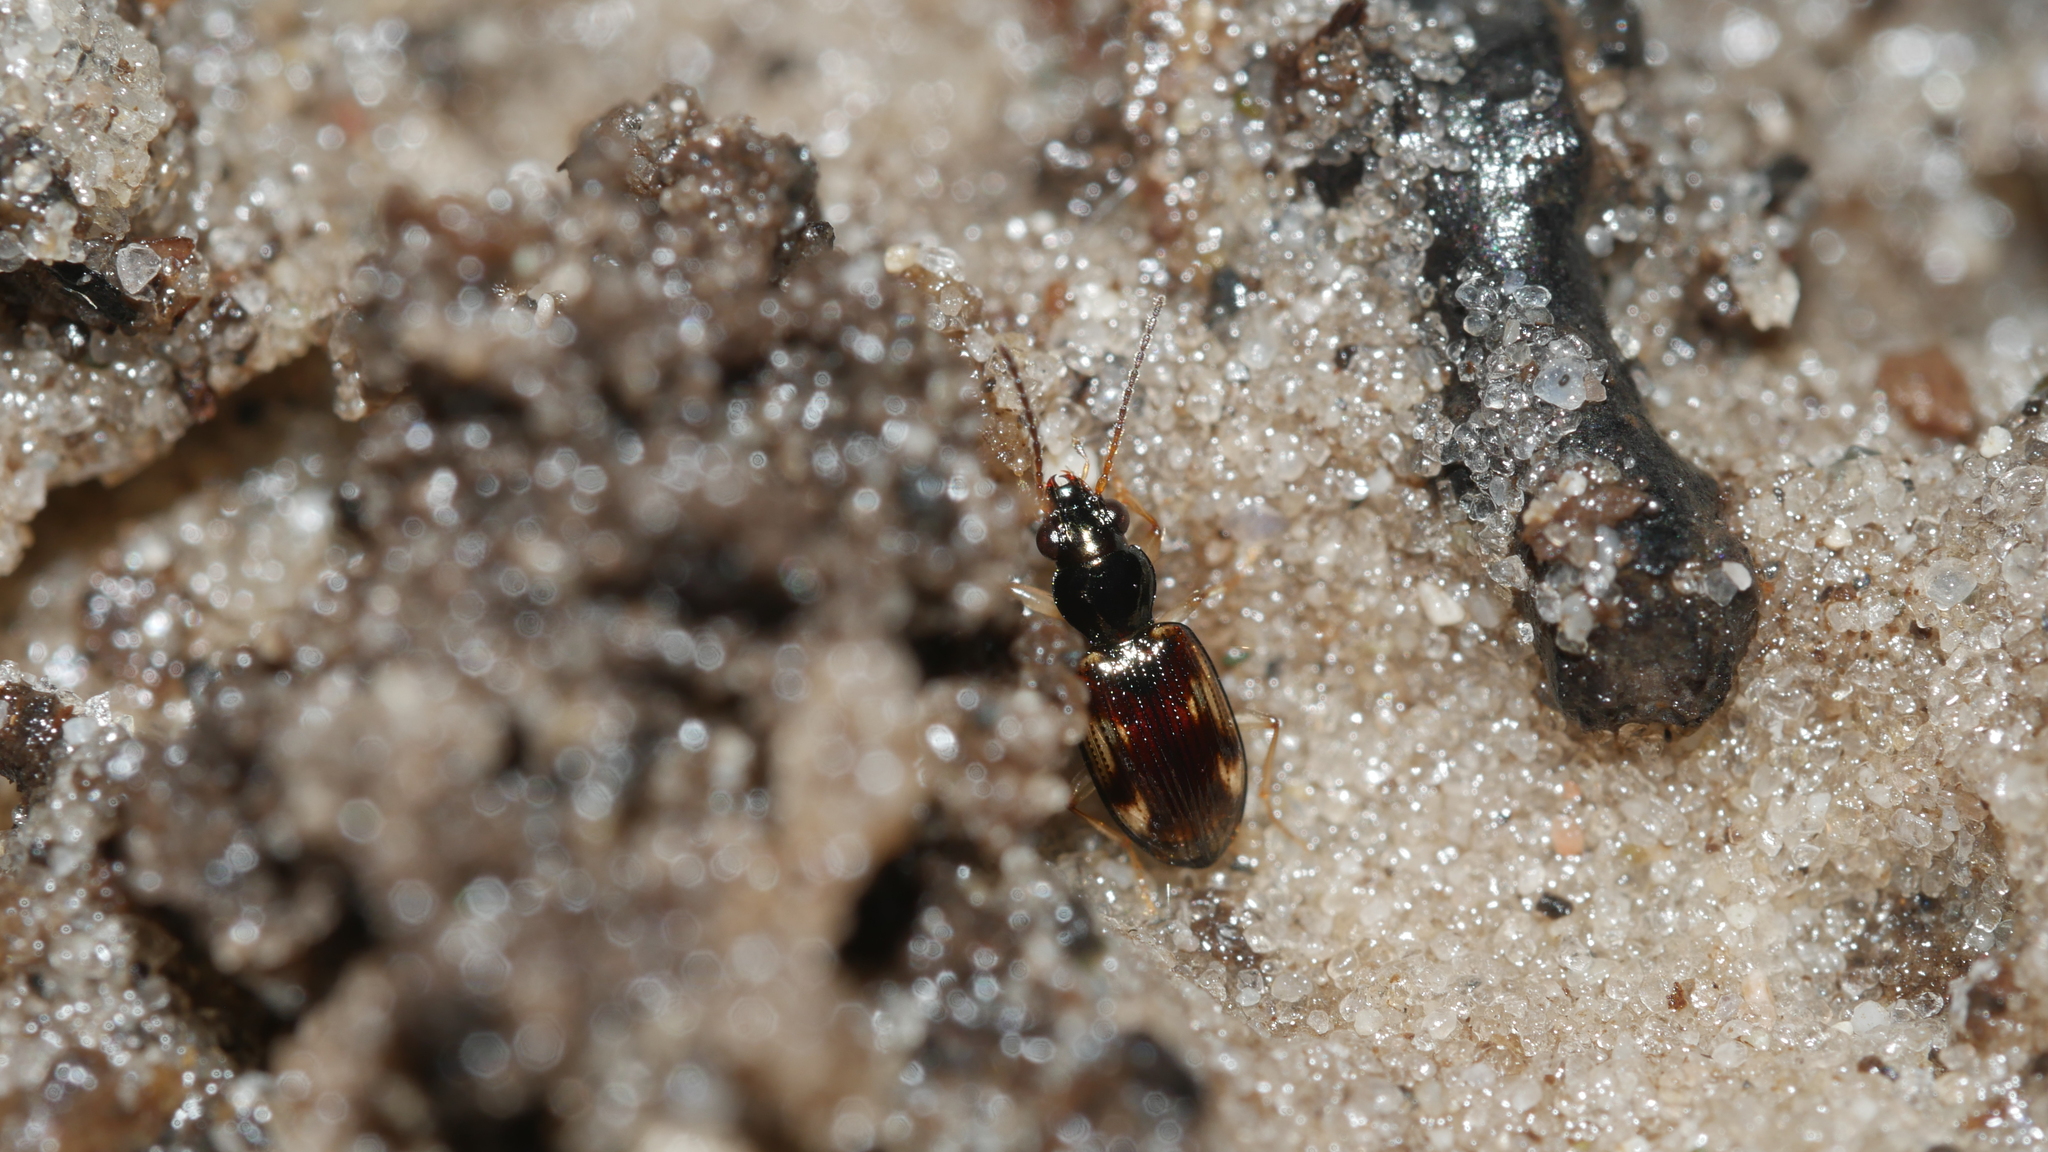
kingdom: Animalia
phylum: Arthropoda
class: Insecta
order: Coleoptera
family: Carabidae
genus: Bembidion
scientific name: Bembidion affine
